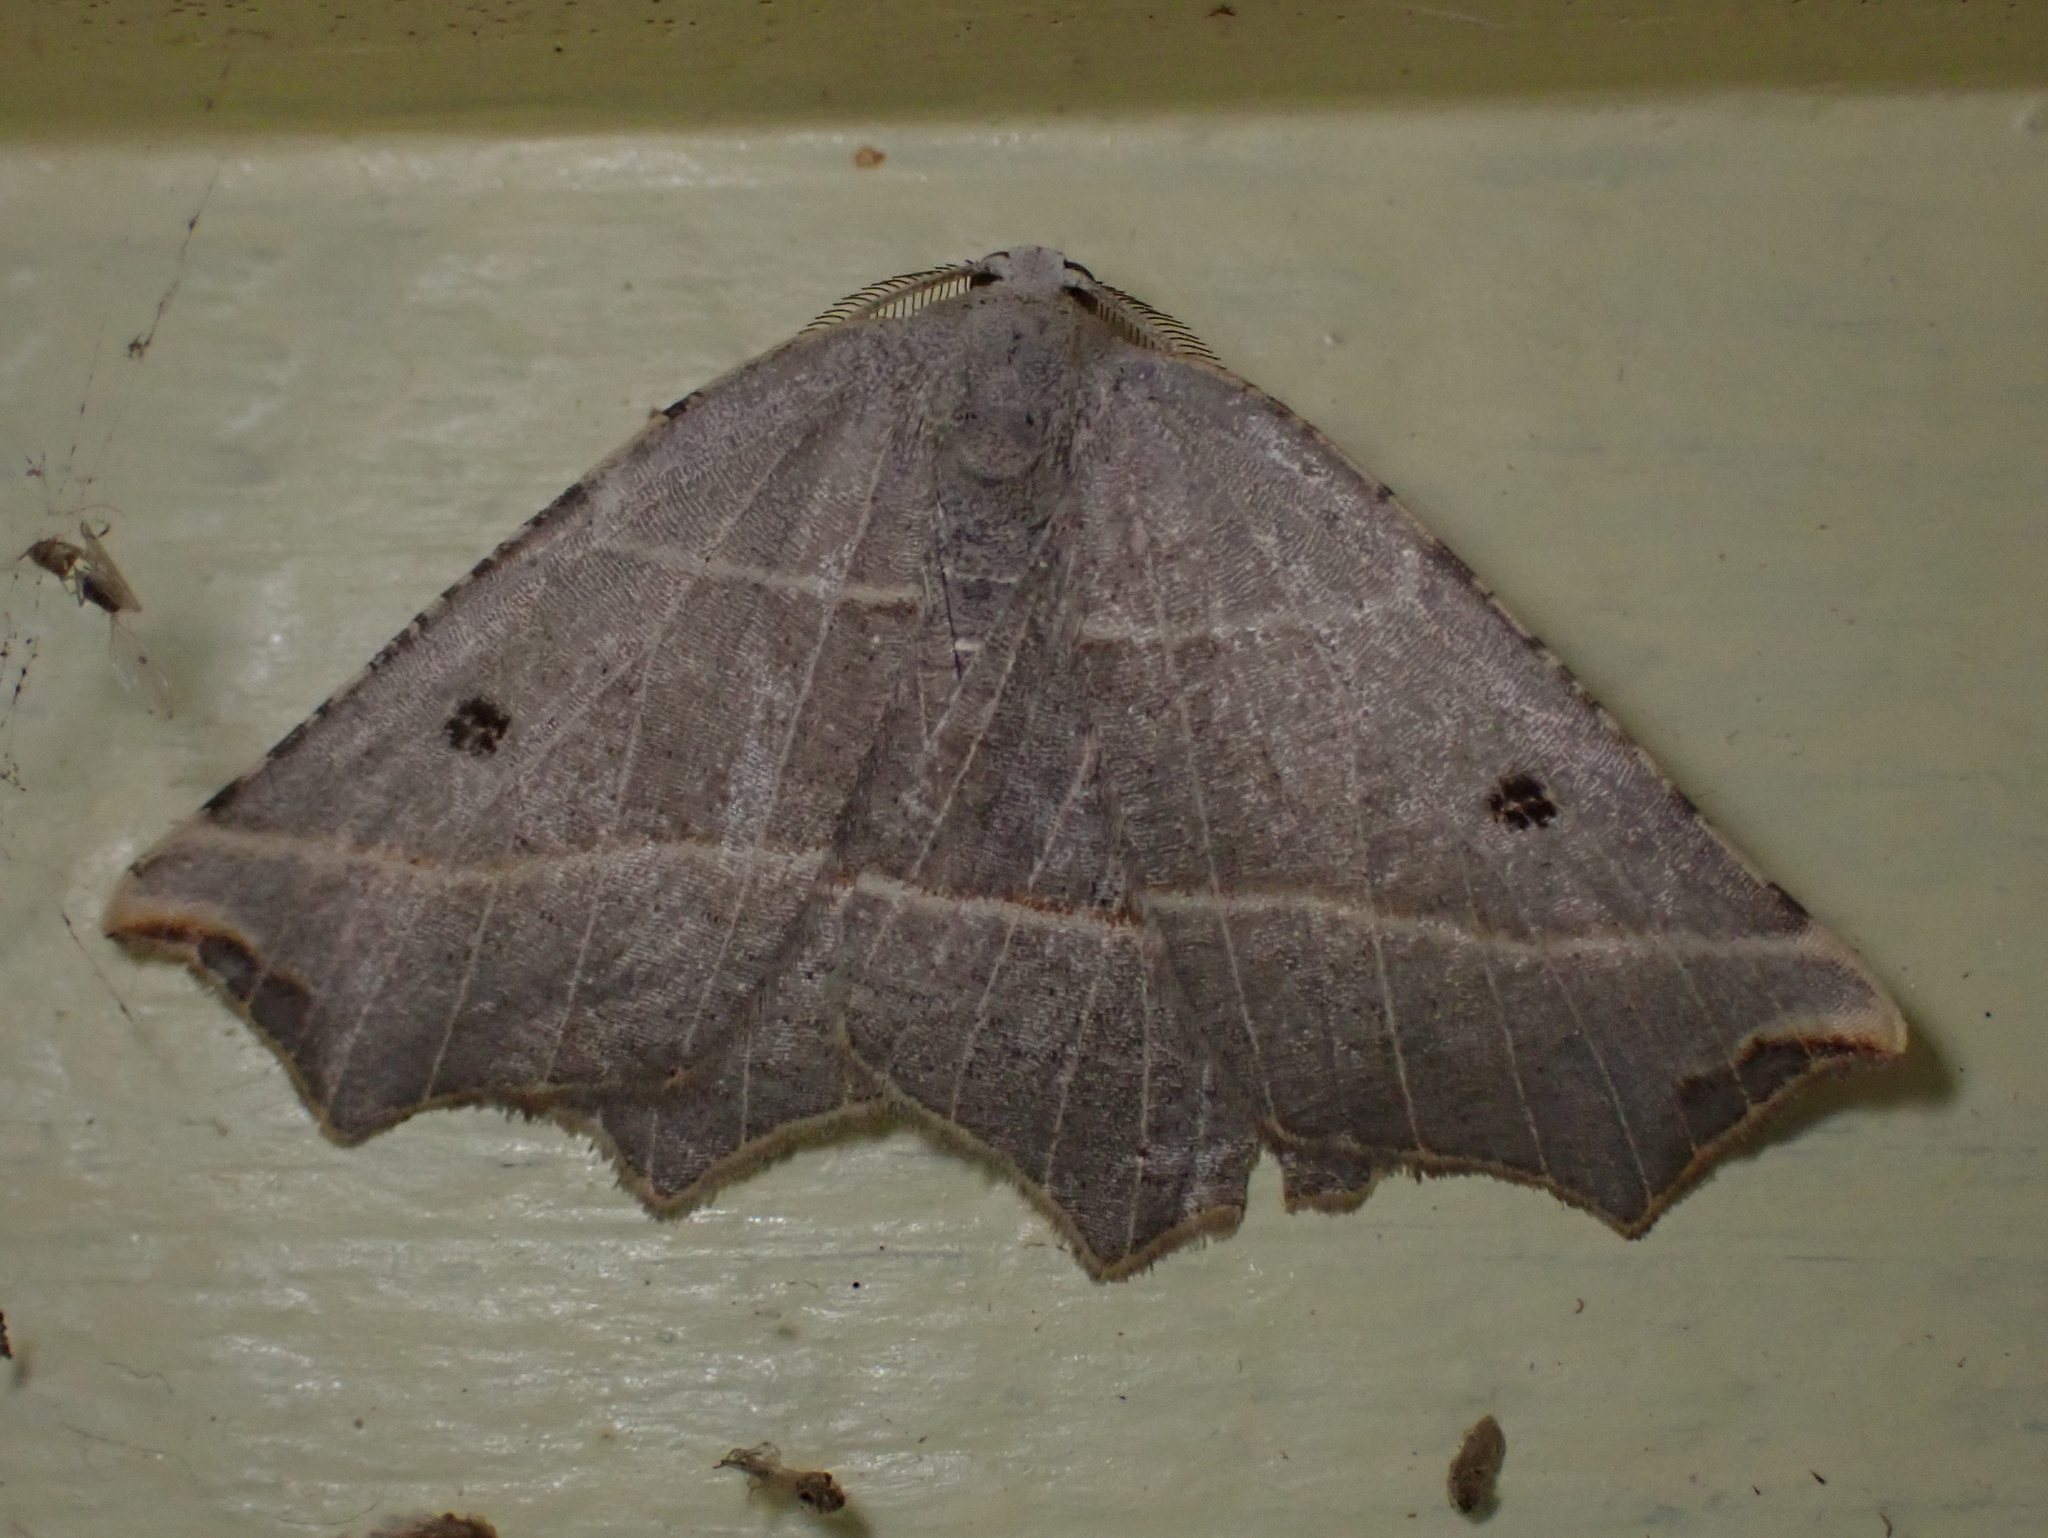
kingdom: Animalia
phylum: Arthropoda
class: Insecta
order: Lepidoptera
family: Geometridae
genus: Metanema
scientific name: Metanema inatomaria
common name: Pale metanema
